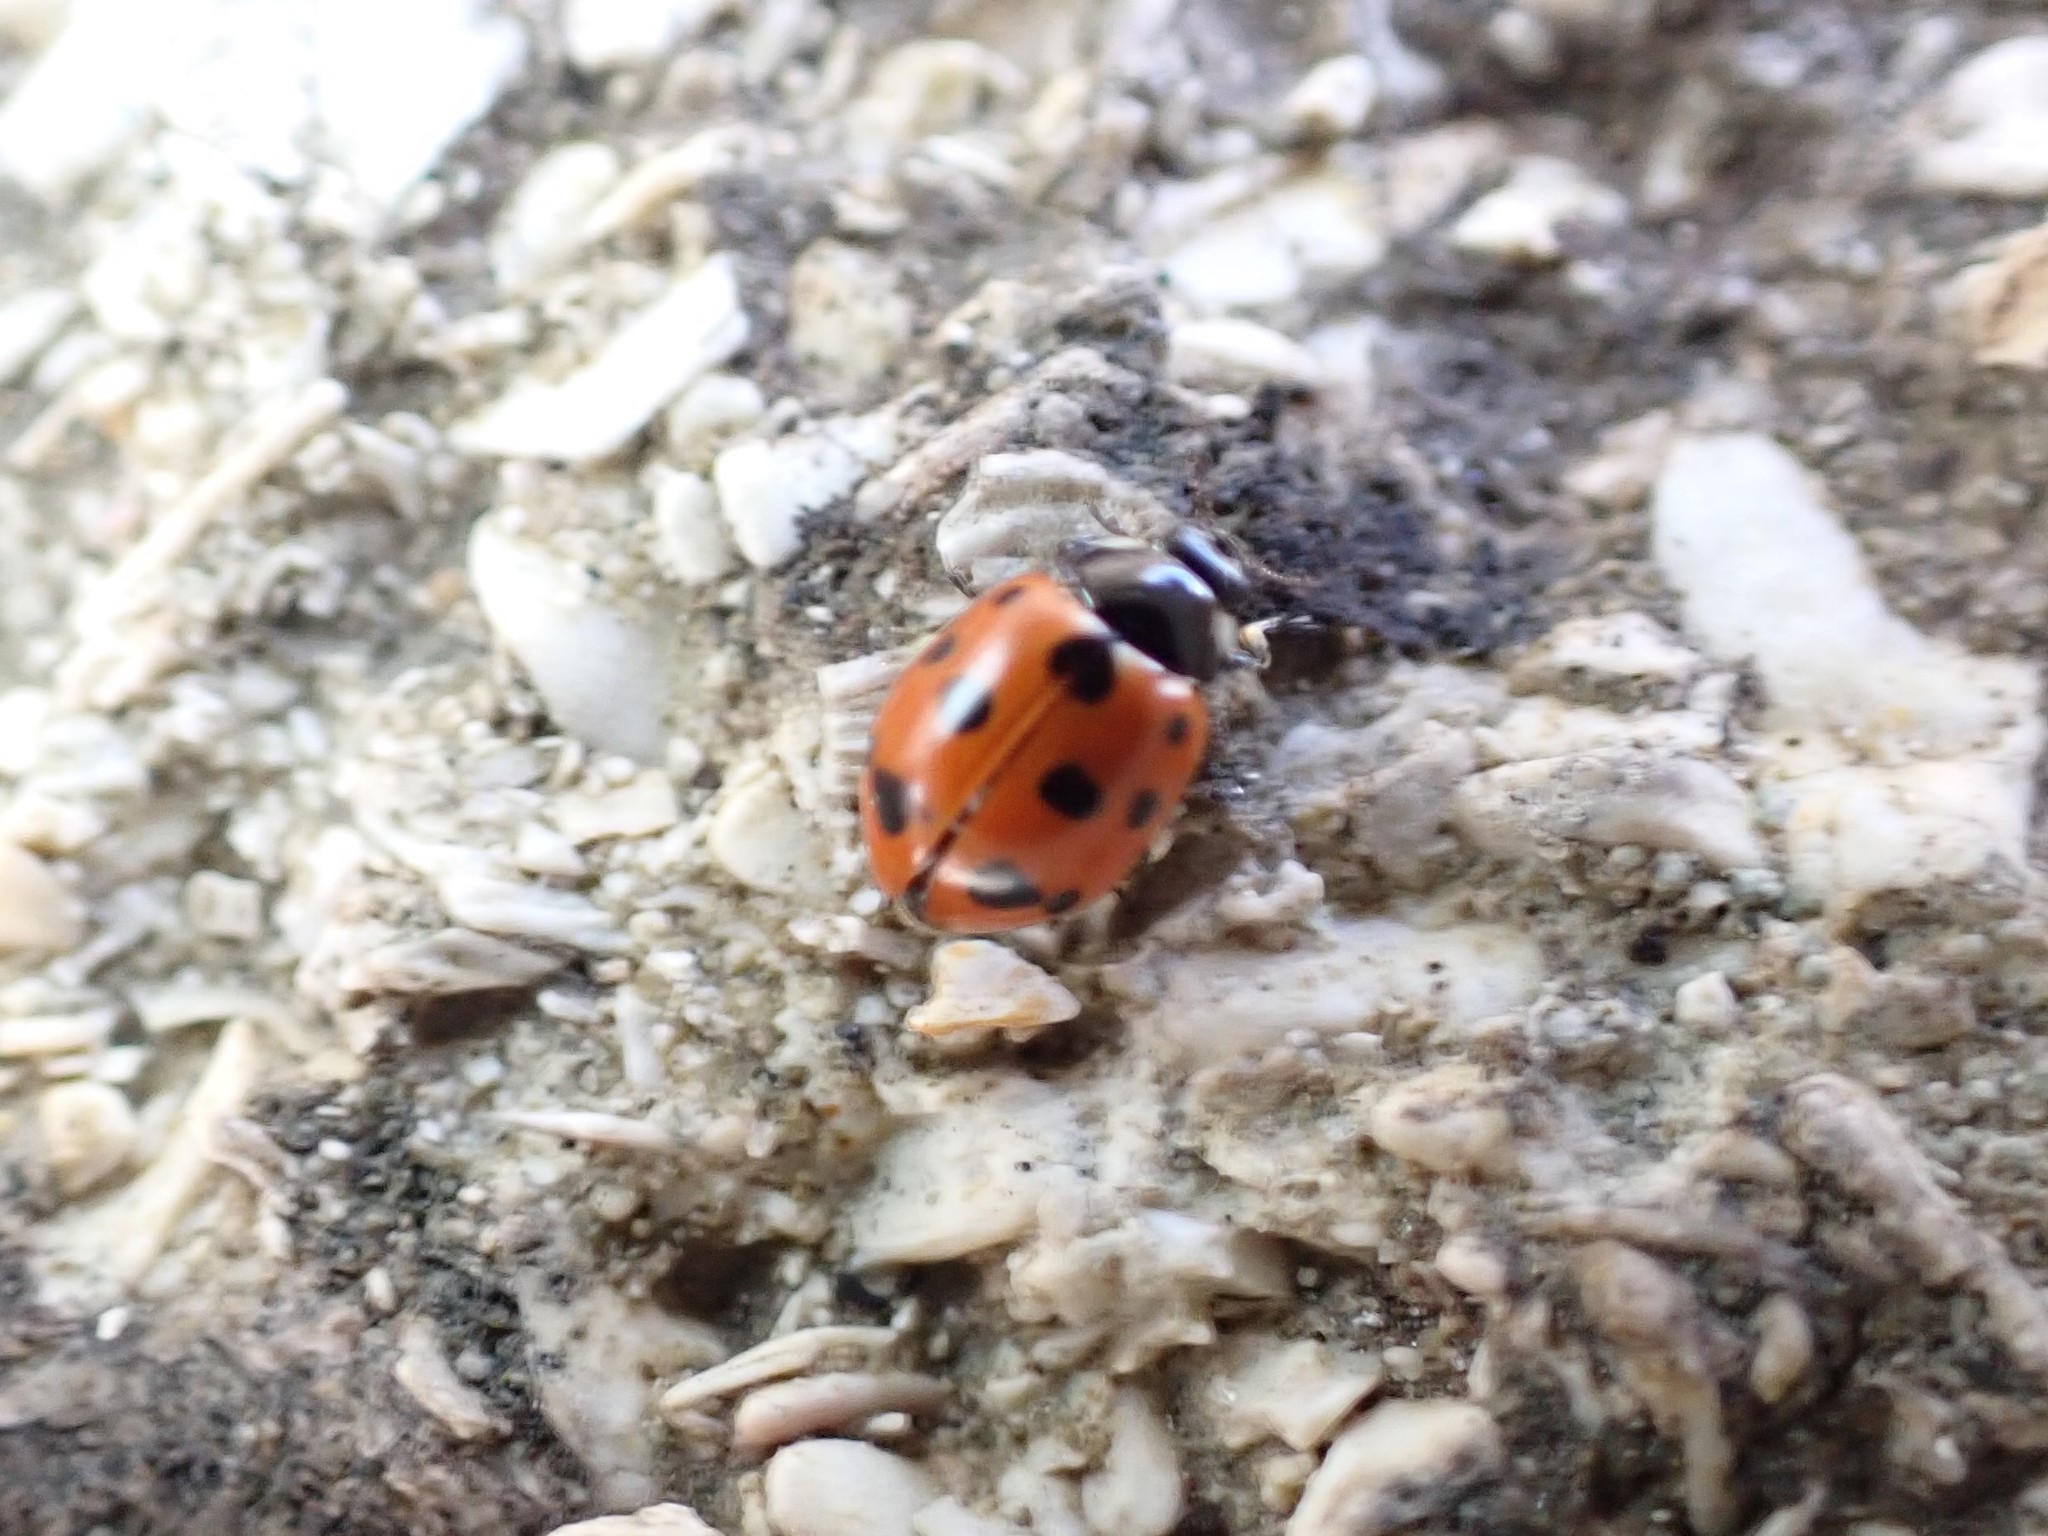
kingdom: Animalia
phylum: Arthropoda
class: Insecta
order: Coleoptera
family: Coccinellidae
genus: Coccinella
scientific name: Coccinella undecimpunctata
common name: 11-spot ladybird
